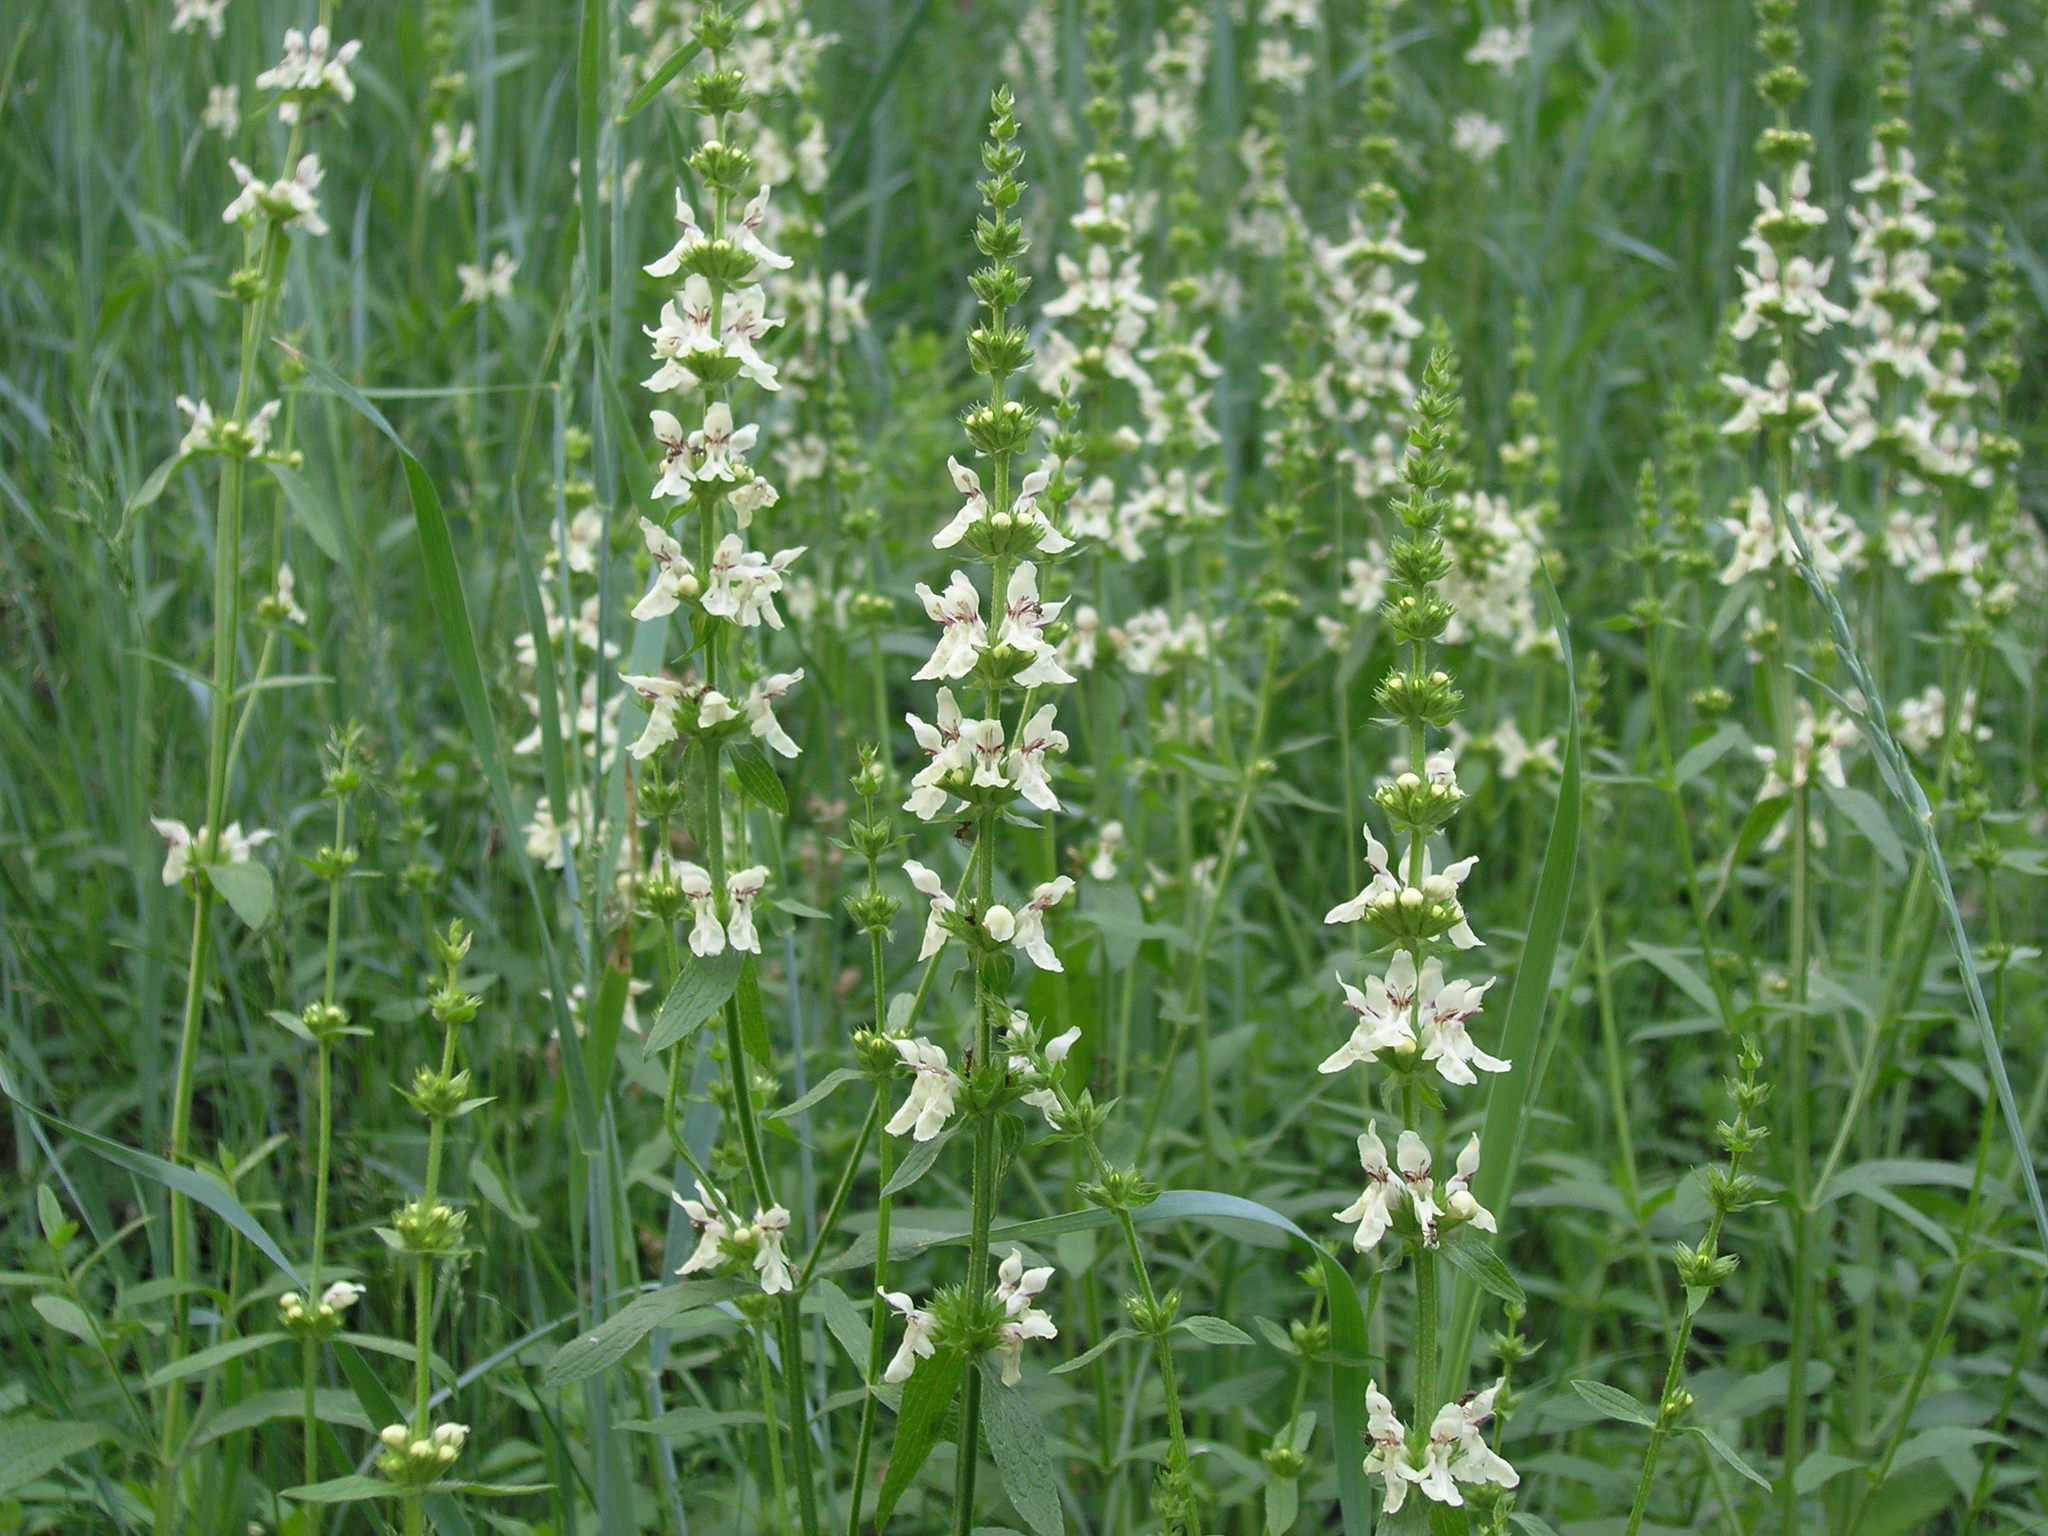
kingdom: Plantae
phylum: Tracheophyta
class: Magnoliopsida
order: Lamiales
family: Lamiaceae
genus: Stachys
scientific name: Stachys recta
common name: Perennial yellow-woundwort
